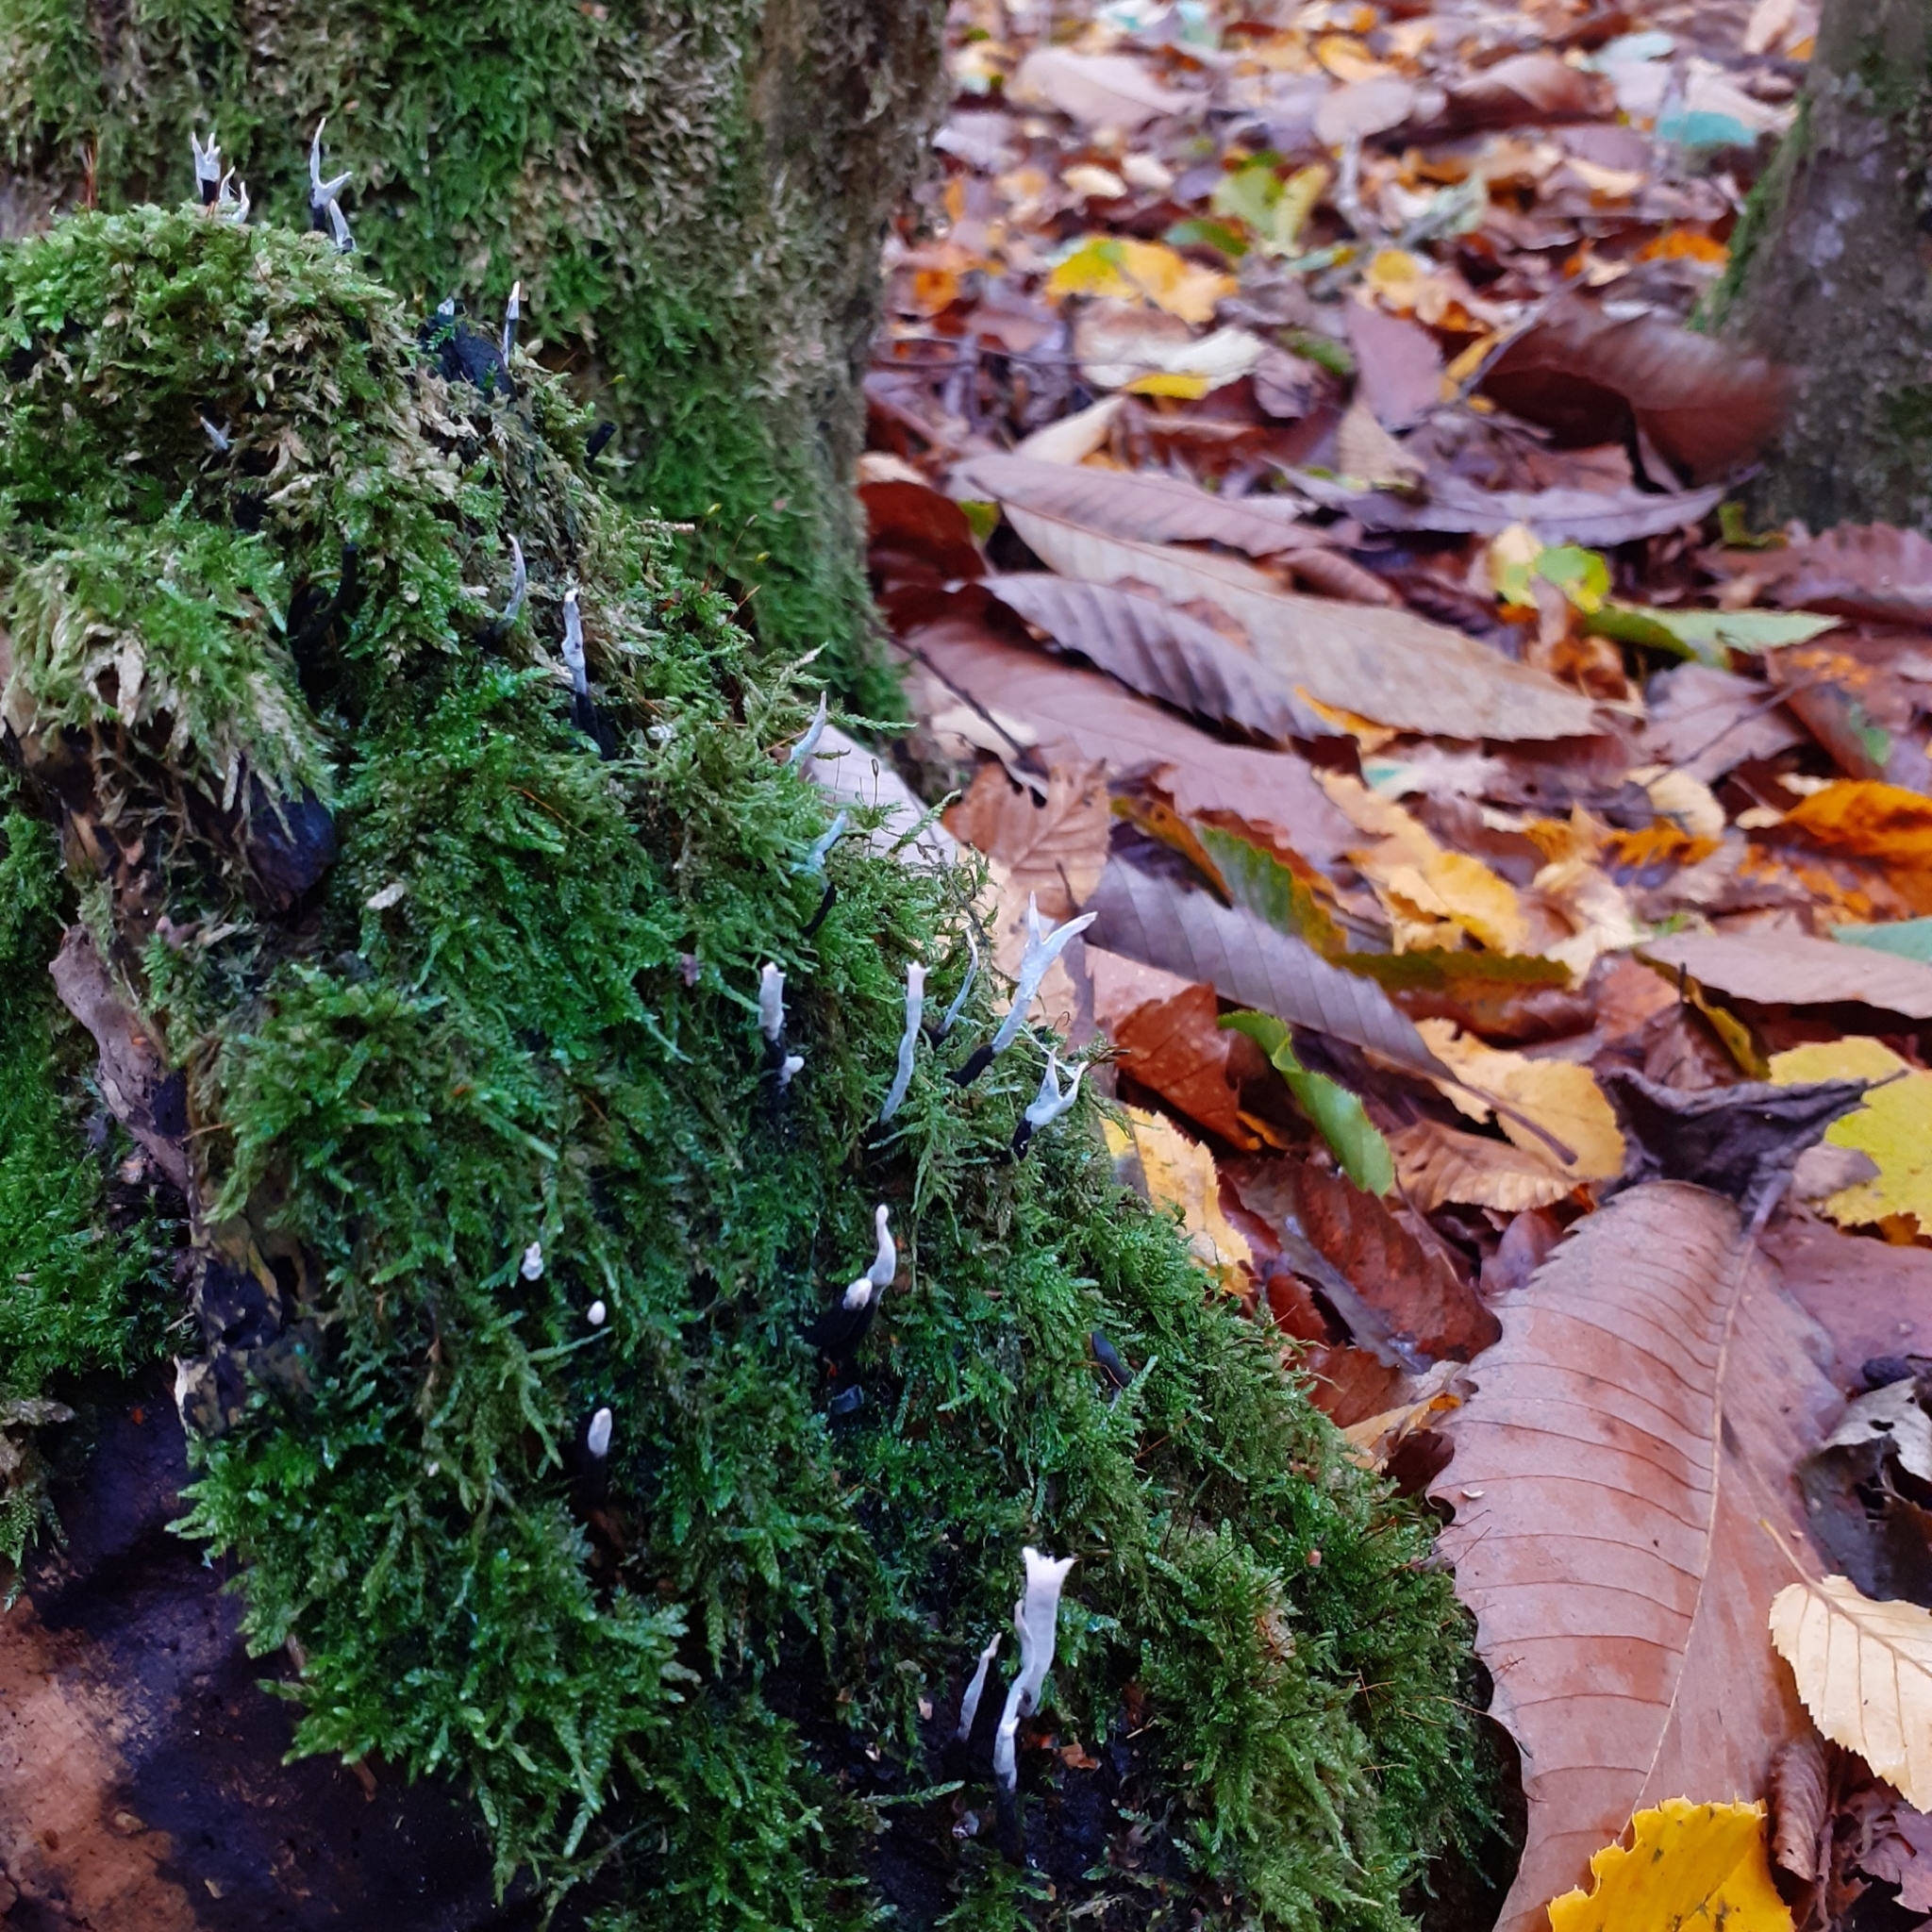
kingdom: Fungi
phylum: Ascomycota
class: Sordariomycetes
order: Xylariales
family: Xylariaceae
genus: Xylaria
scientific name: Xylaria hypoxylon
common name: Candle-snuff fungus
